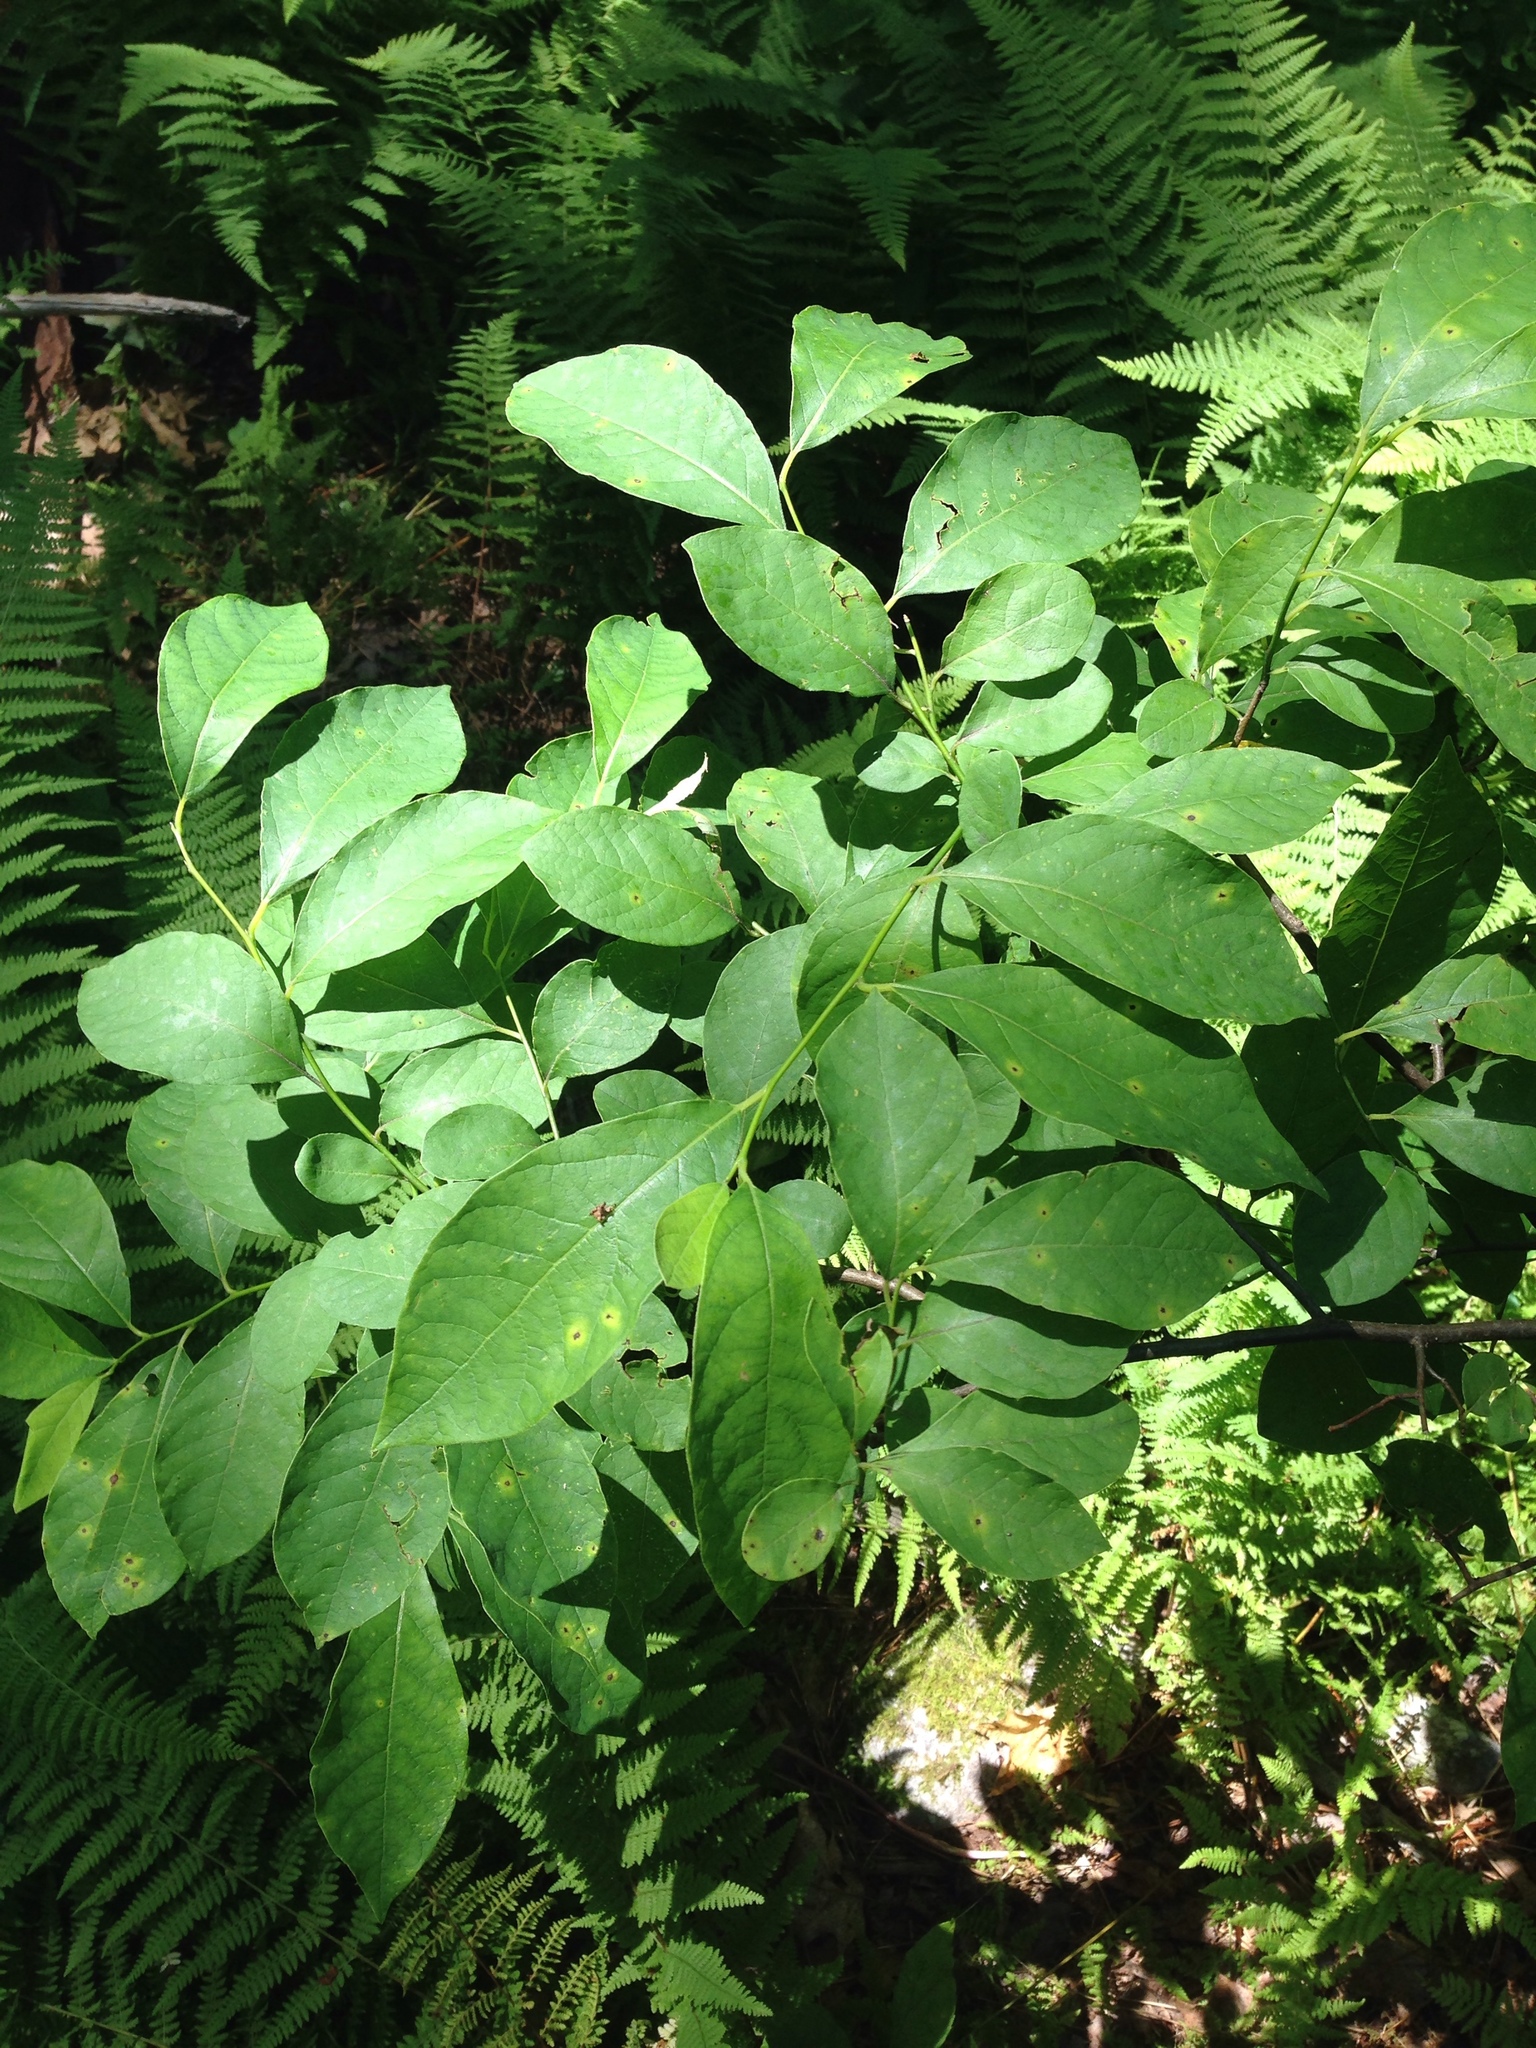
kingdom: Plantae
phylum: Tracheophyta
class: Magnoliopsida
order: Laurales
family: Lauraceae
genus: Lindera
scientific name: Lindera benzoin
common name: Spicebush
